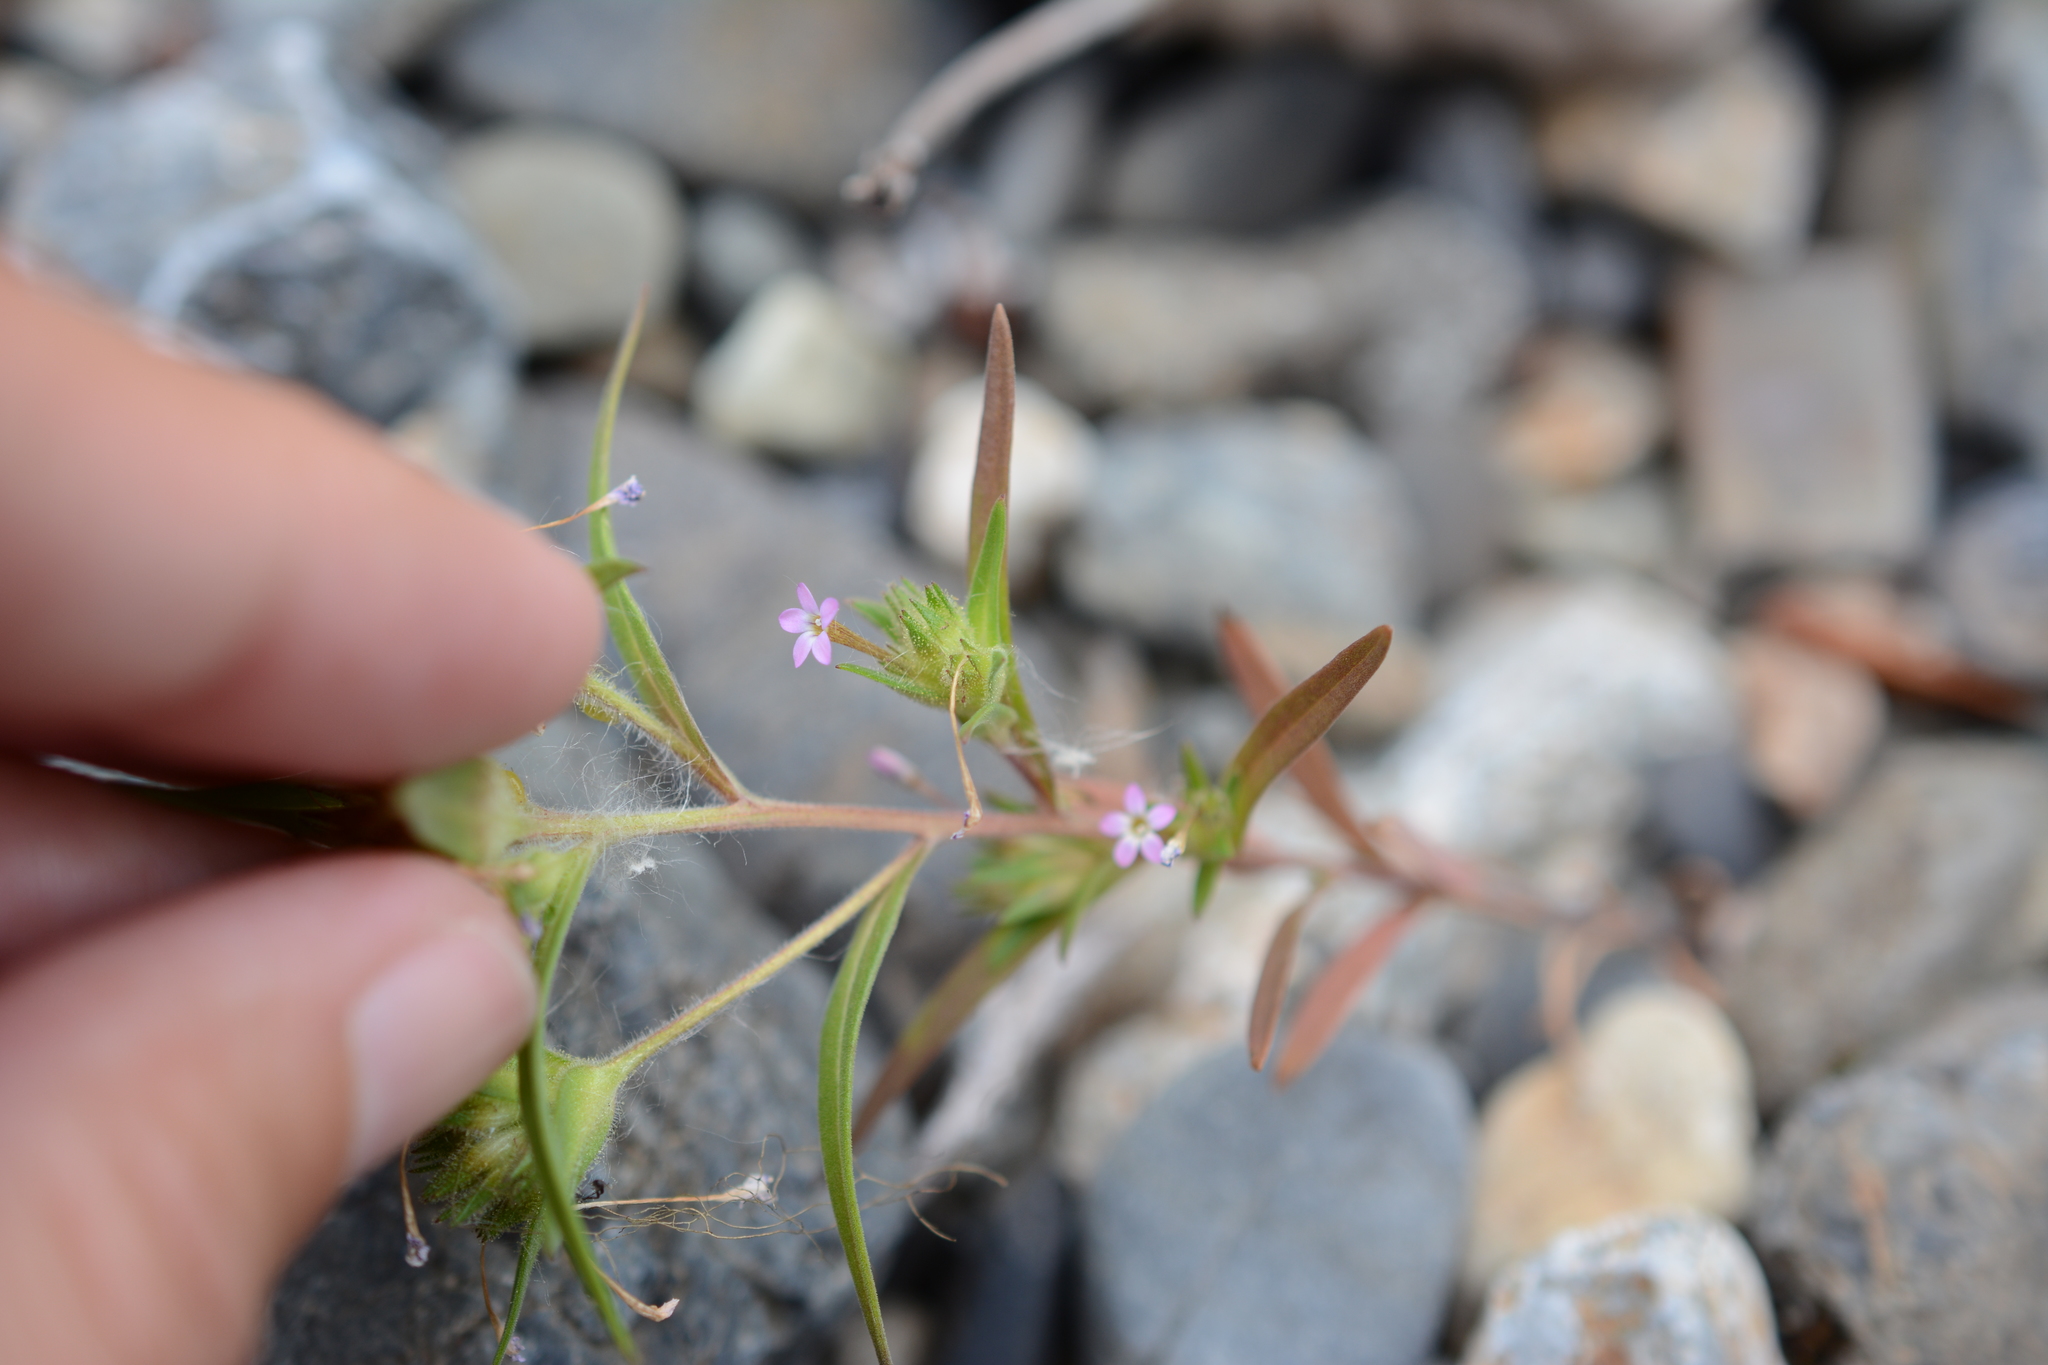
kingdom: Plantae
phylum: Tracheophyta
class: Magnoliopsida
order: Ericales
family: Polemoniaceae
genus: Collomia
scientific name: Collomia linearis
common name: Tiny trumpet
